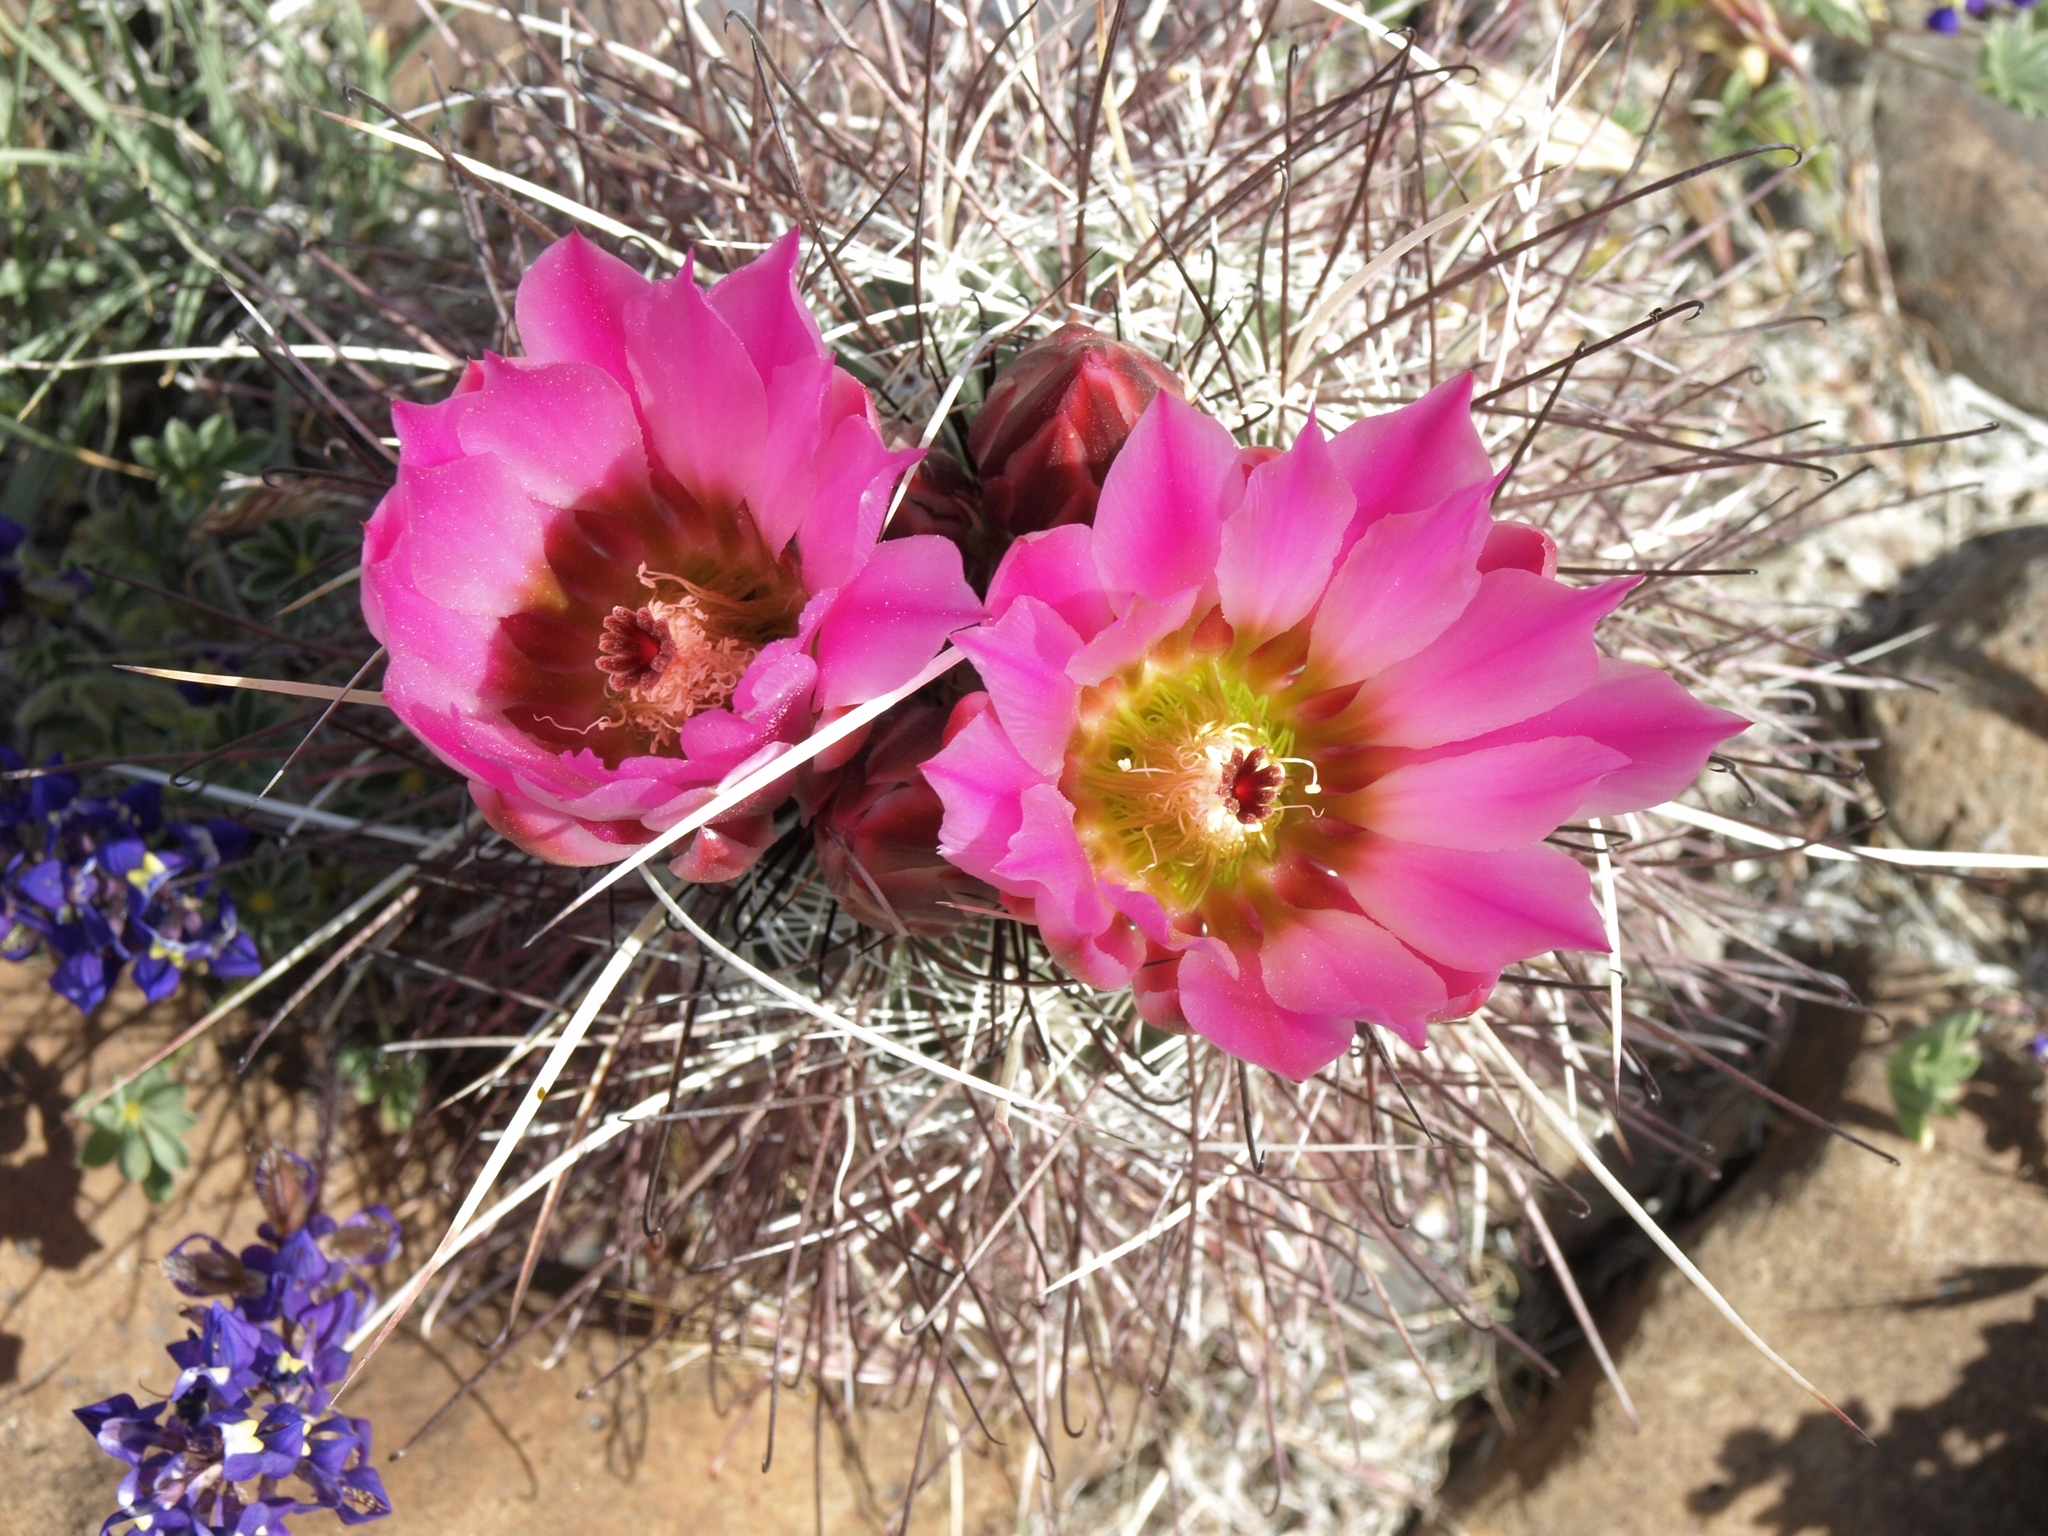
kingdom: Plantae
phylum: Tracheophyta
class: Magnoliopsida
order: Caryophyllales
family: Cactaceae
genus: Sclerocactus
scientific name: Sclerocactus polyancistrus
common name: Mohave fishhook cactus
